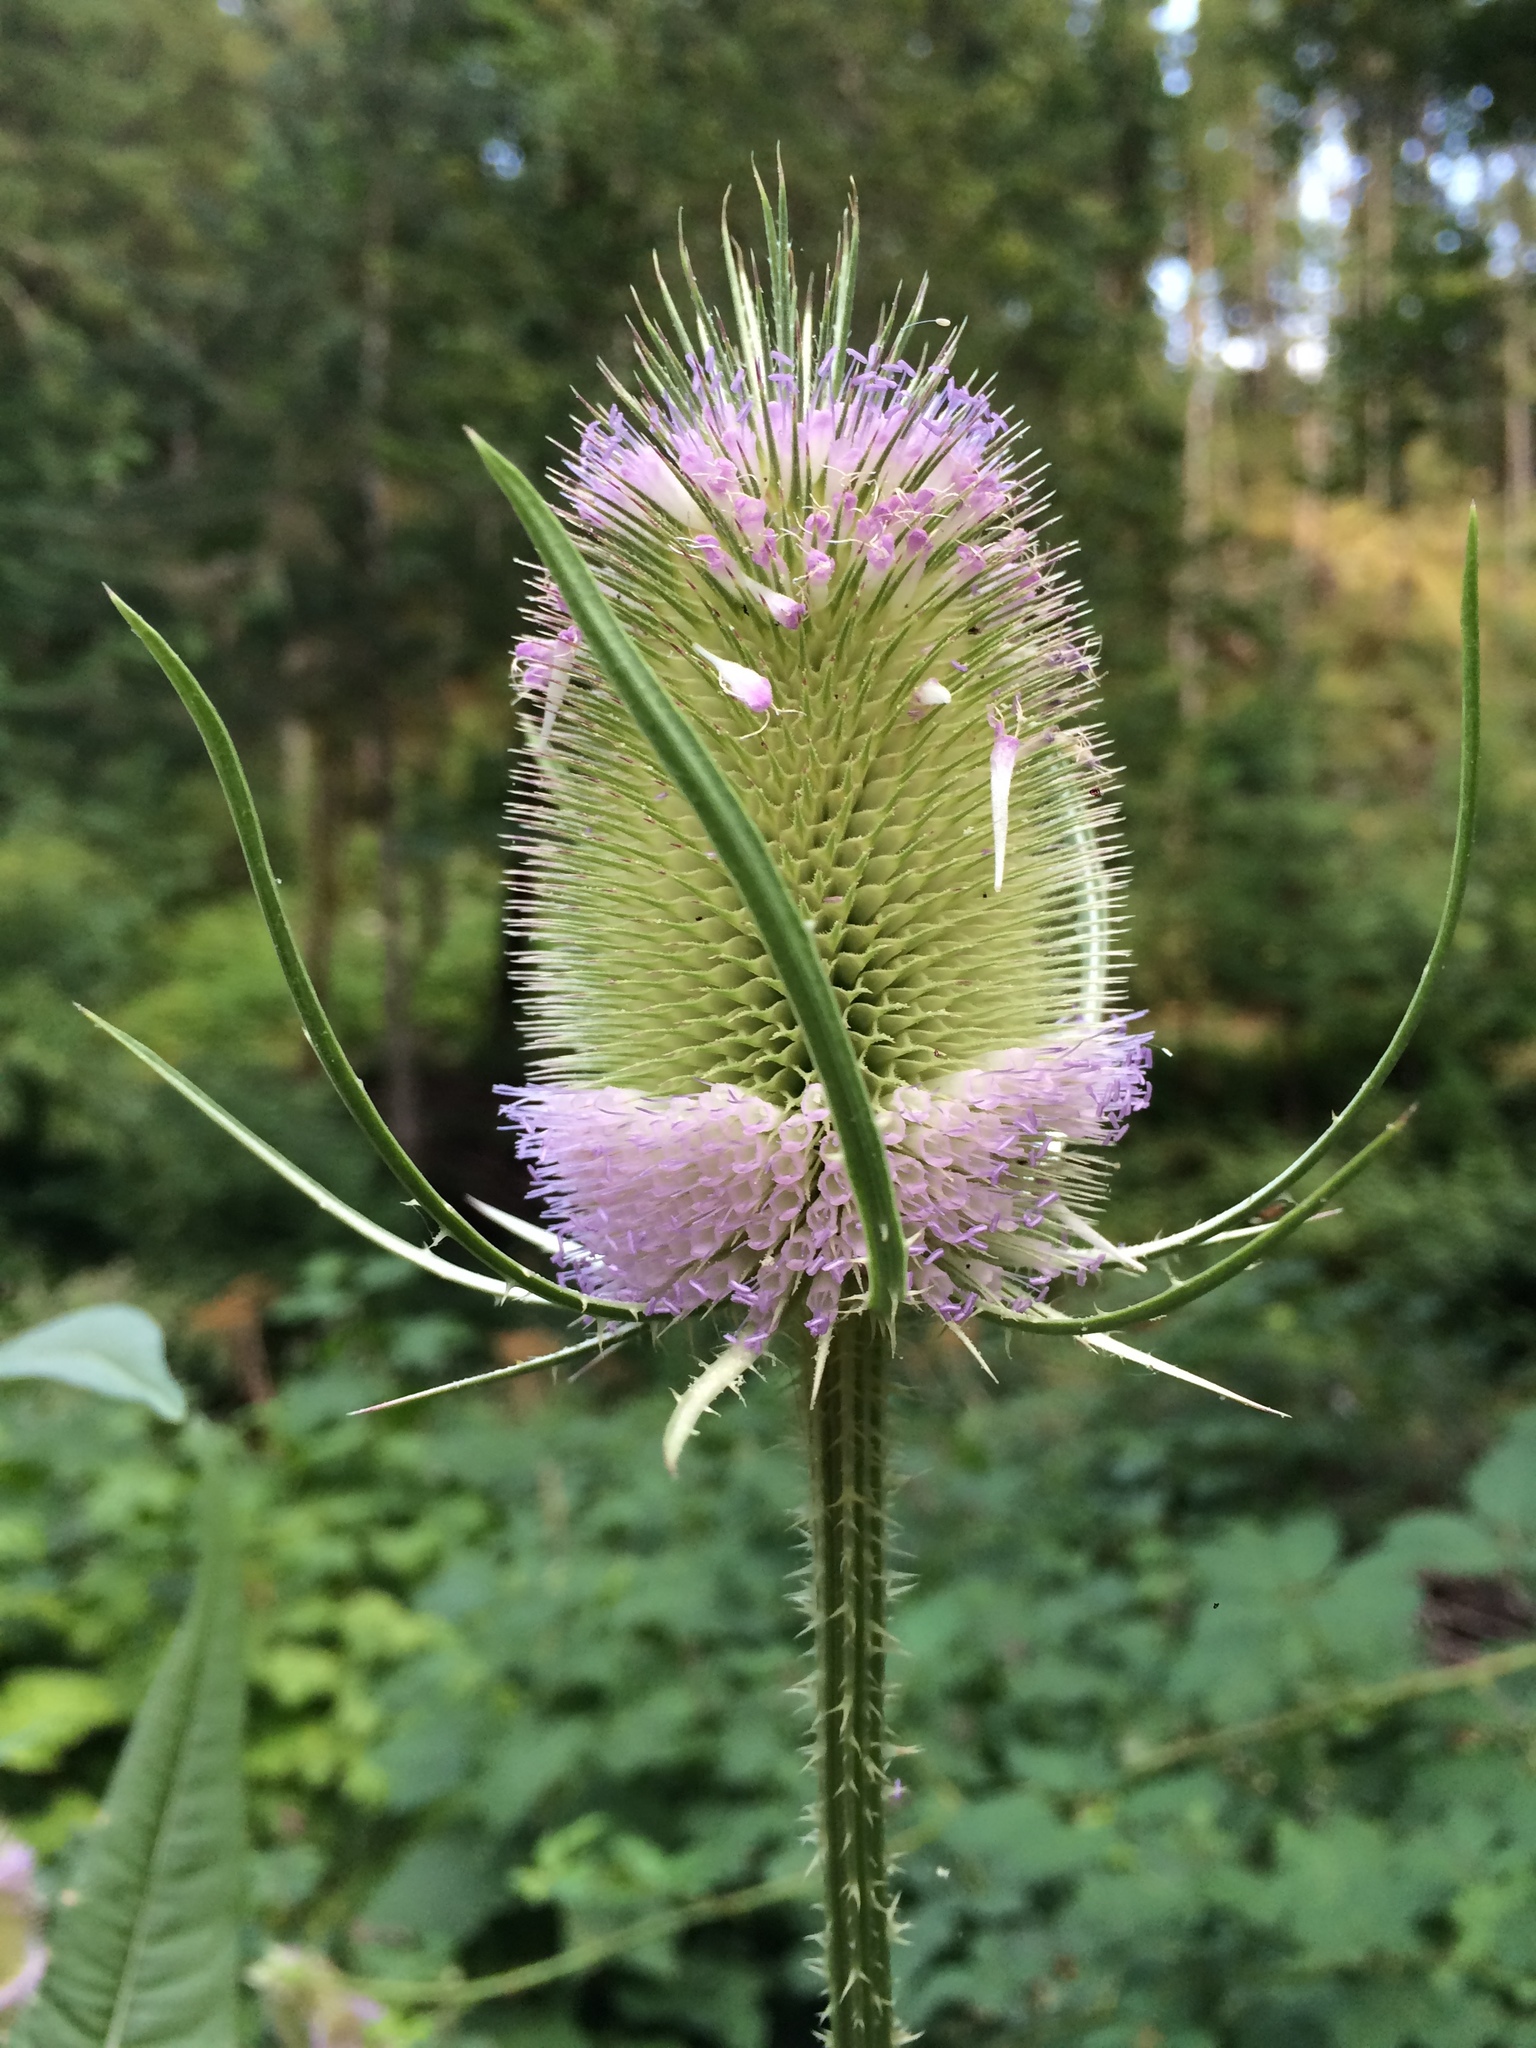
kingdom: Plantae
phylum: Tracheophyta
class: Magnoliopsida
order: Dipsacales
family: Caprifoliaceae
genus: Dipsacus
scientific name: Dipsacus fullonum
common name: Teasel
